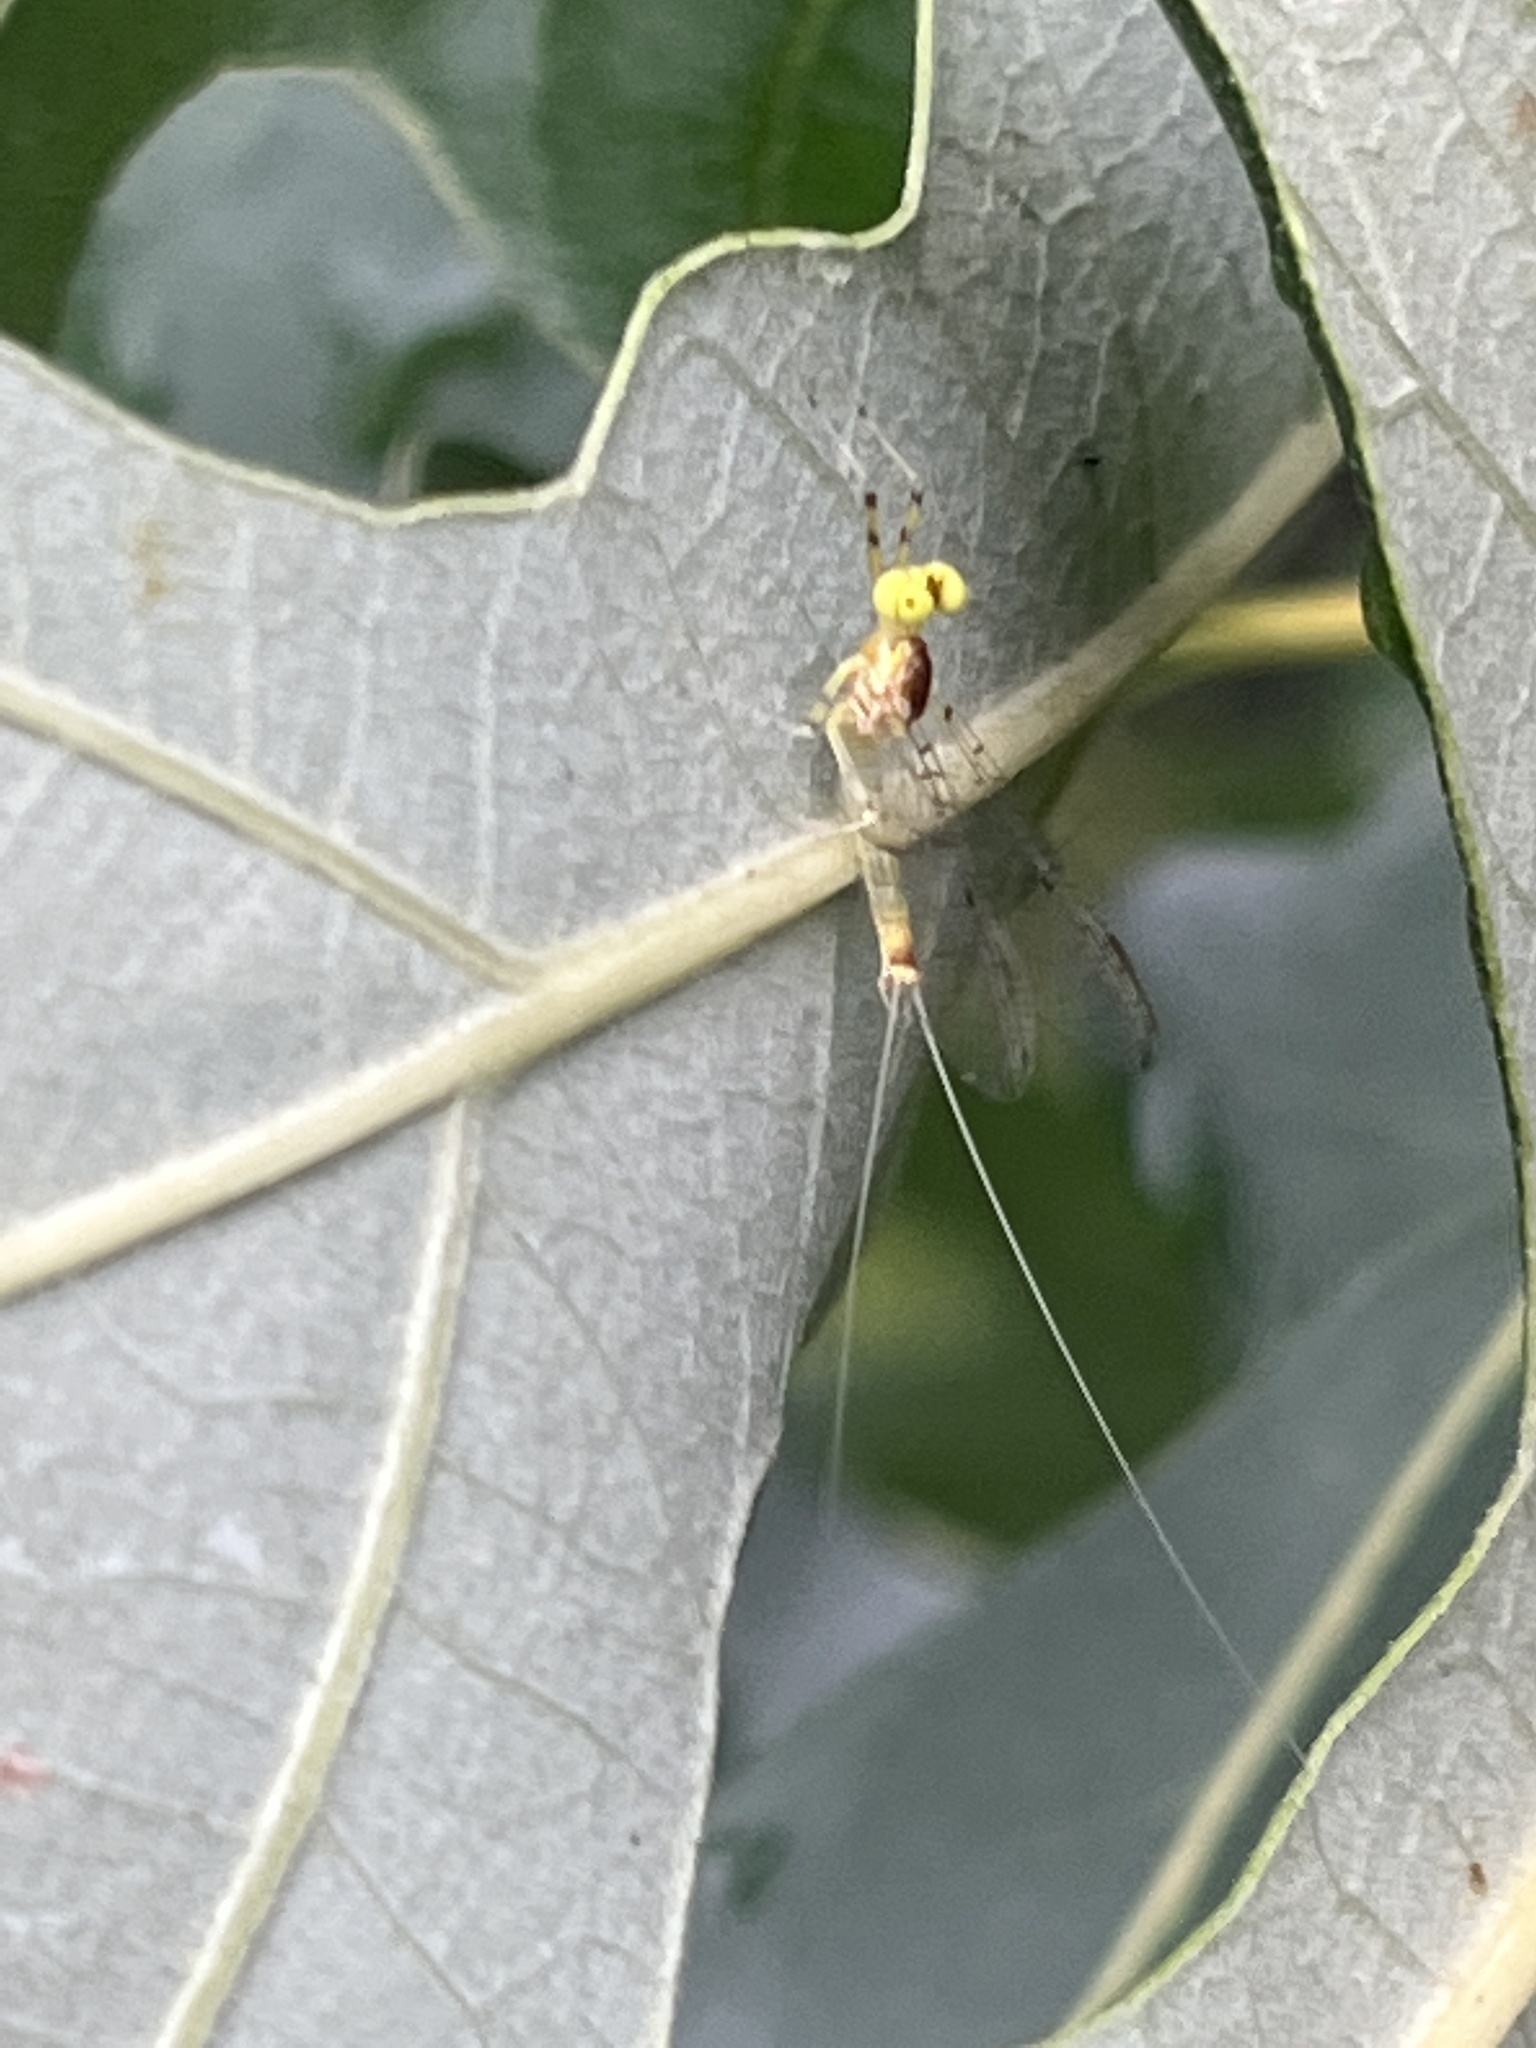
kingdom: Animalia
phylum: Arthropoda
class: Insecta
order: Ephemeroptera
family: Heptageniidae
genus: Stenacron
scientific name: Stenacron interpunctatum
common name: Orange cahill
